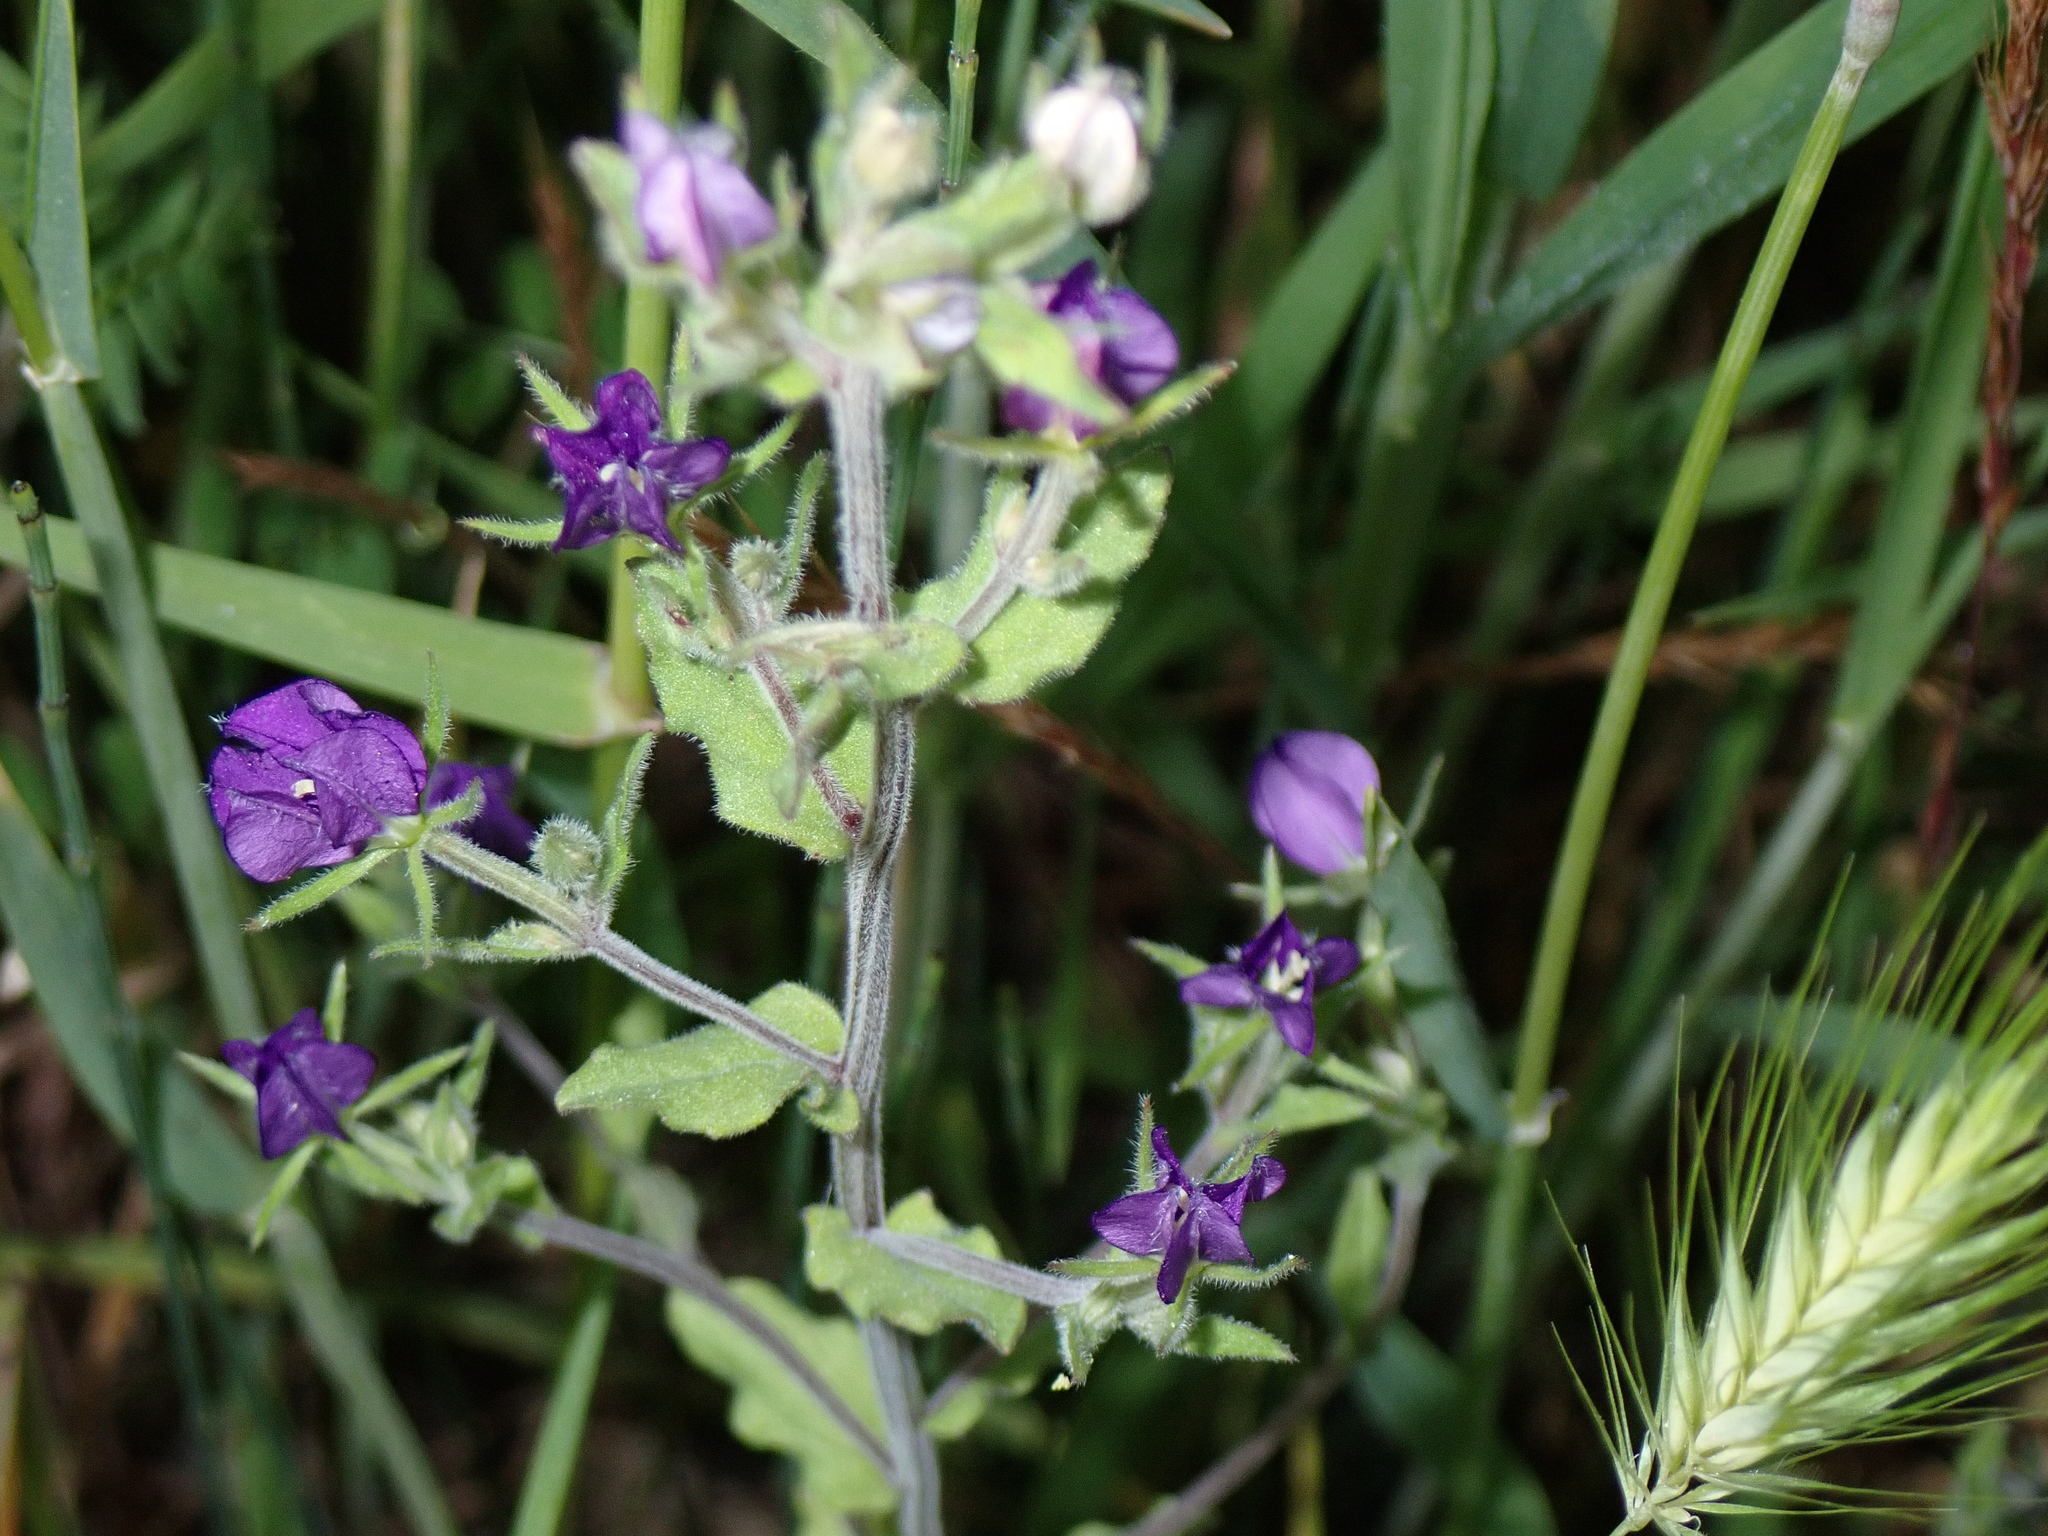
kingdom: Plantae
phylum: Tracheophyta
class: Magnoliopsida
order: Asterales
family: Campanulaceae
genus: Legousia
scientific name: Legousia speculum-veneris
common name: Large venus's-looking-glass
